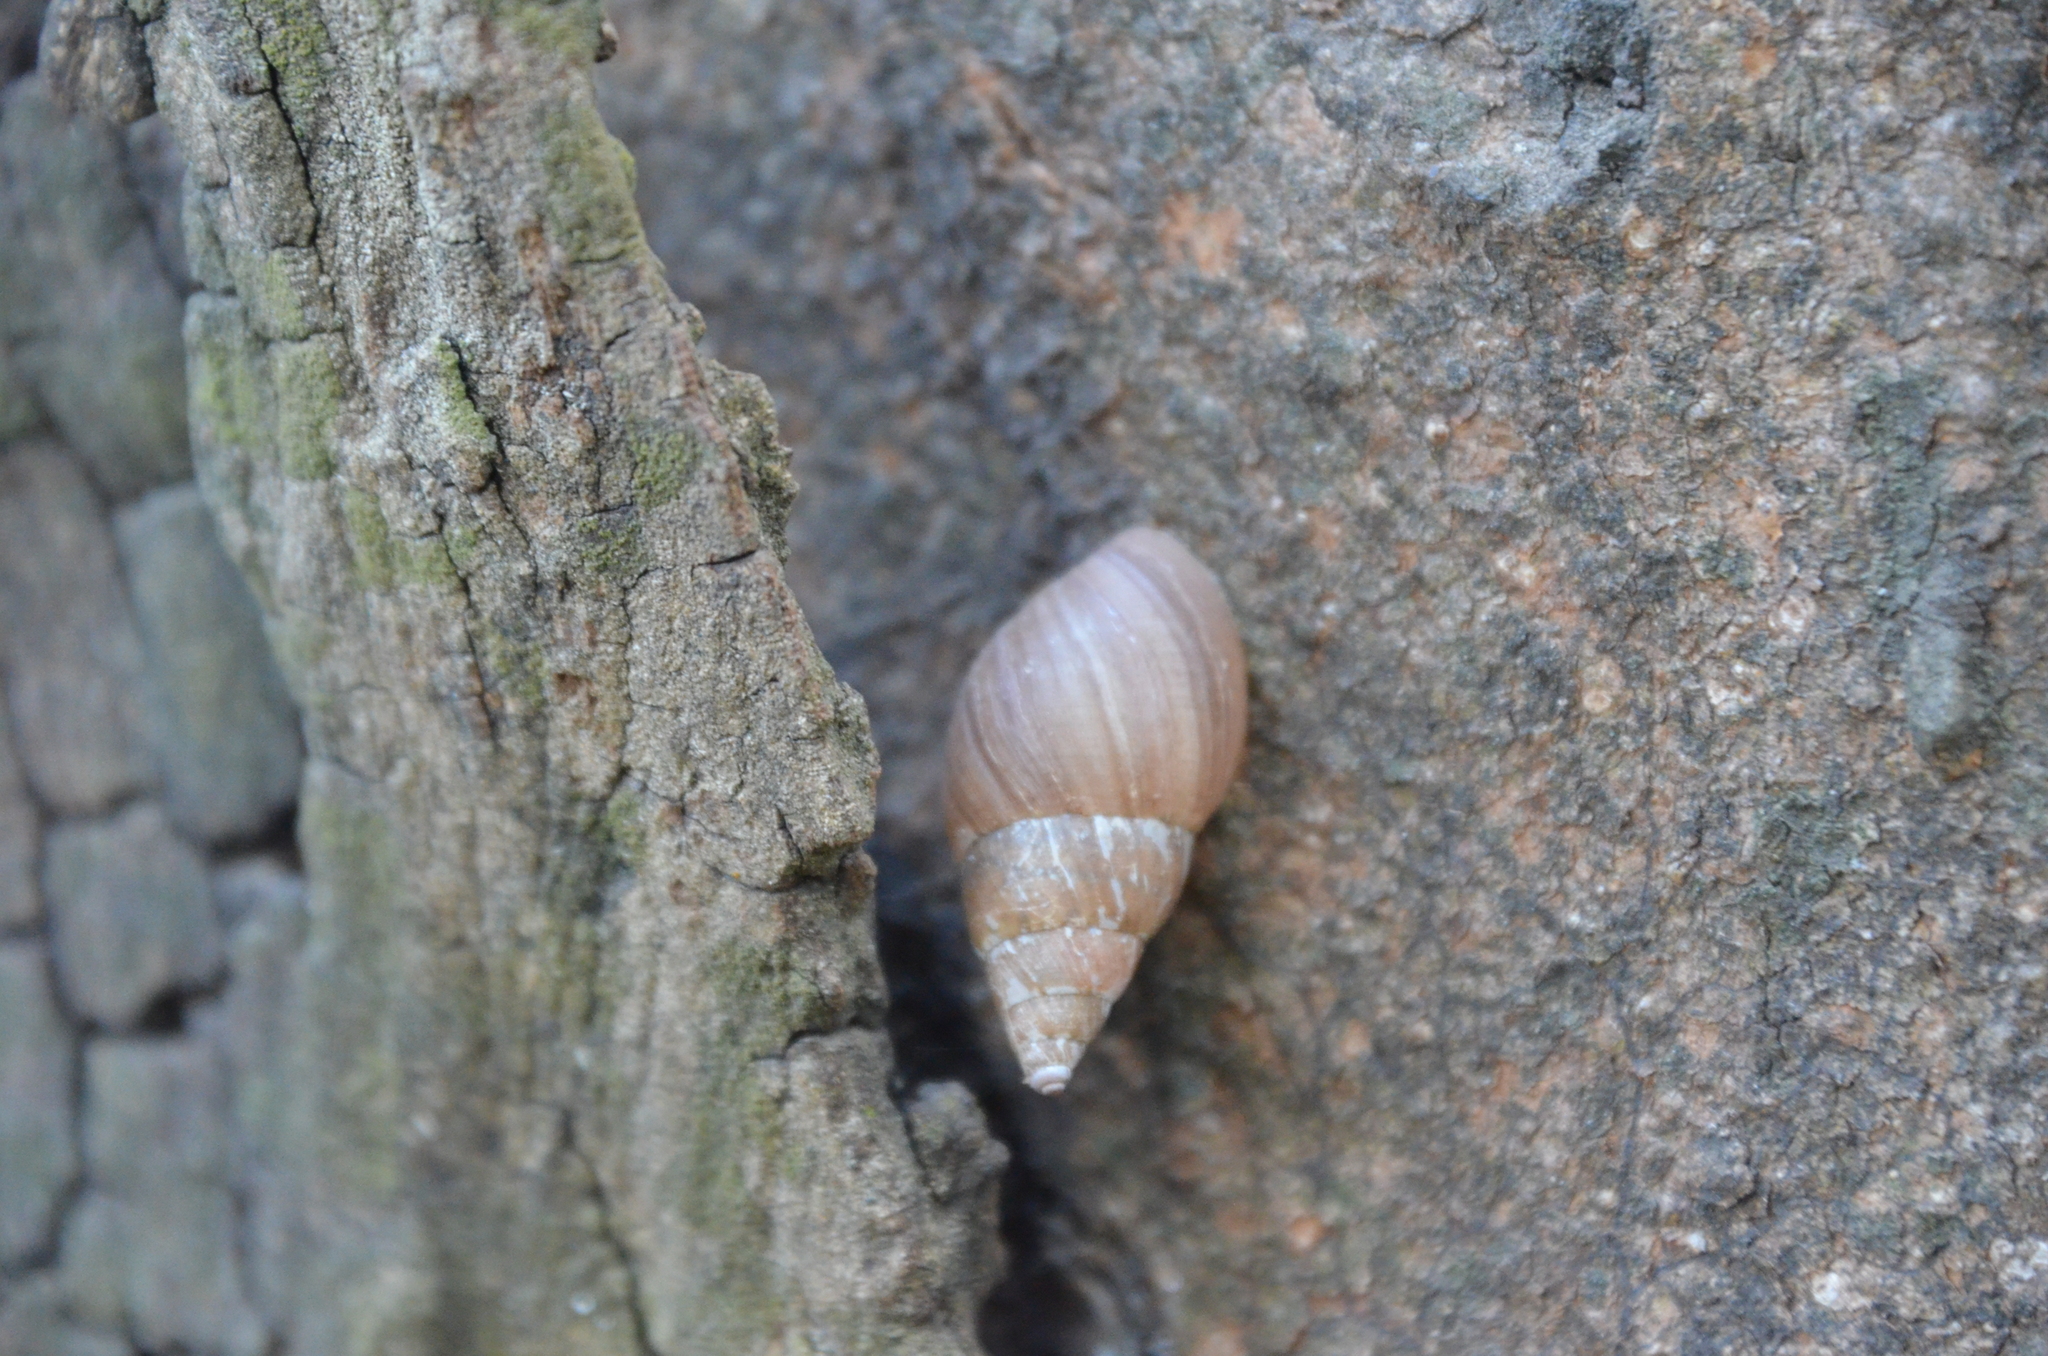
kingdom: Animalia
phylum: Mollusca
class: Gastropoda
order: Stylommatophora
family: Bulimulidae
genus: Bulimulus
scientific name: Bulimulus bonariensis
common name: Snail
